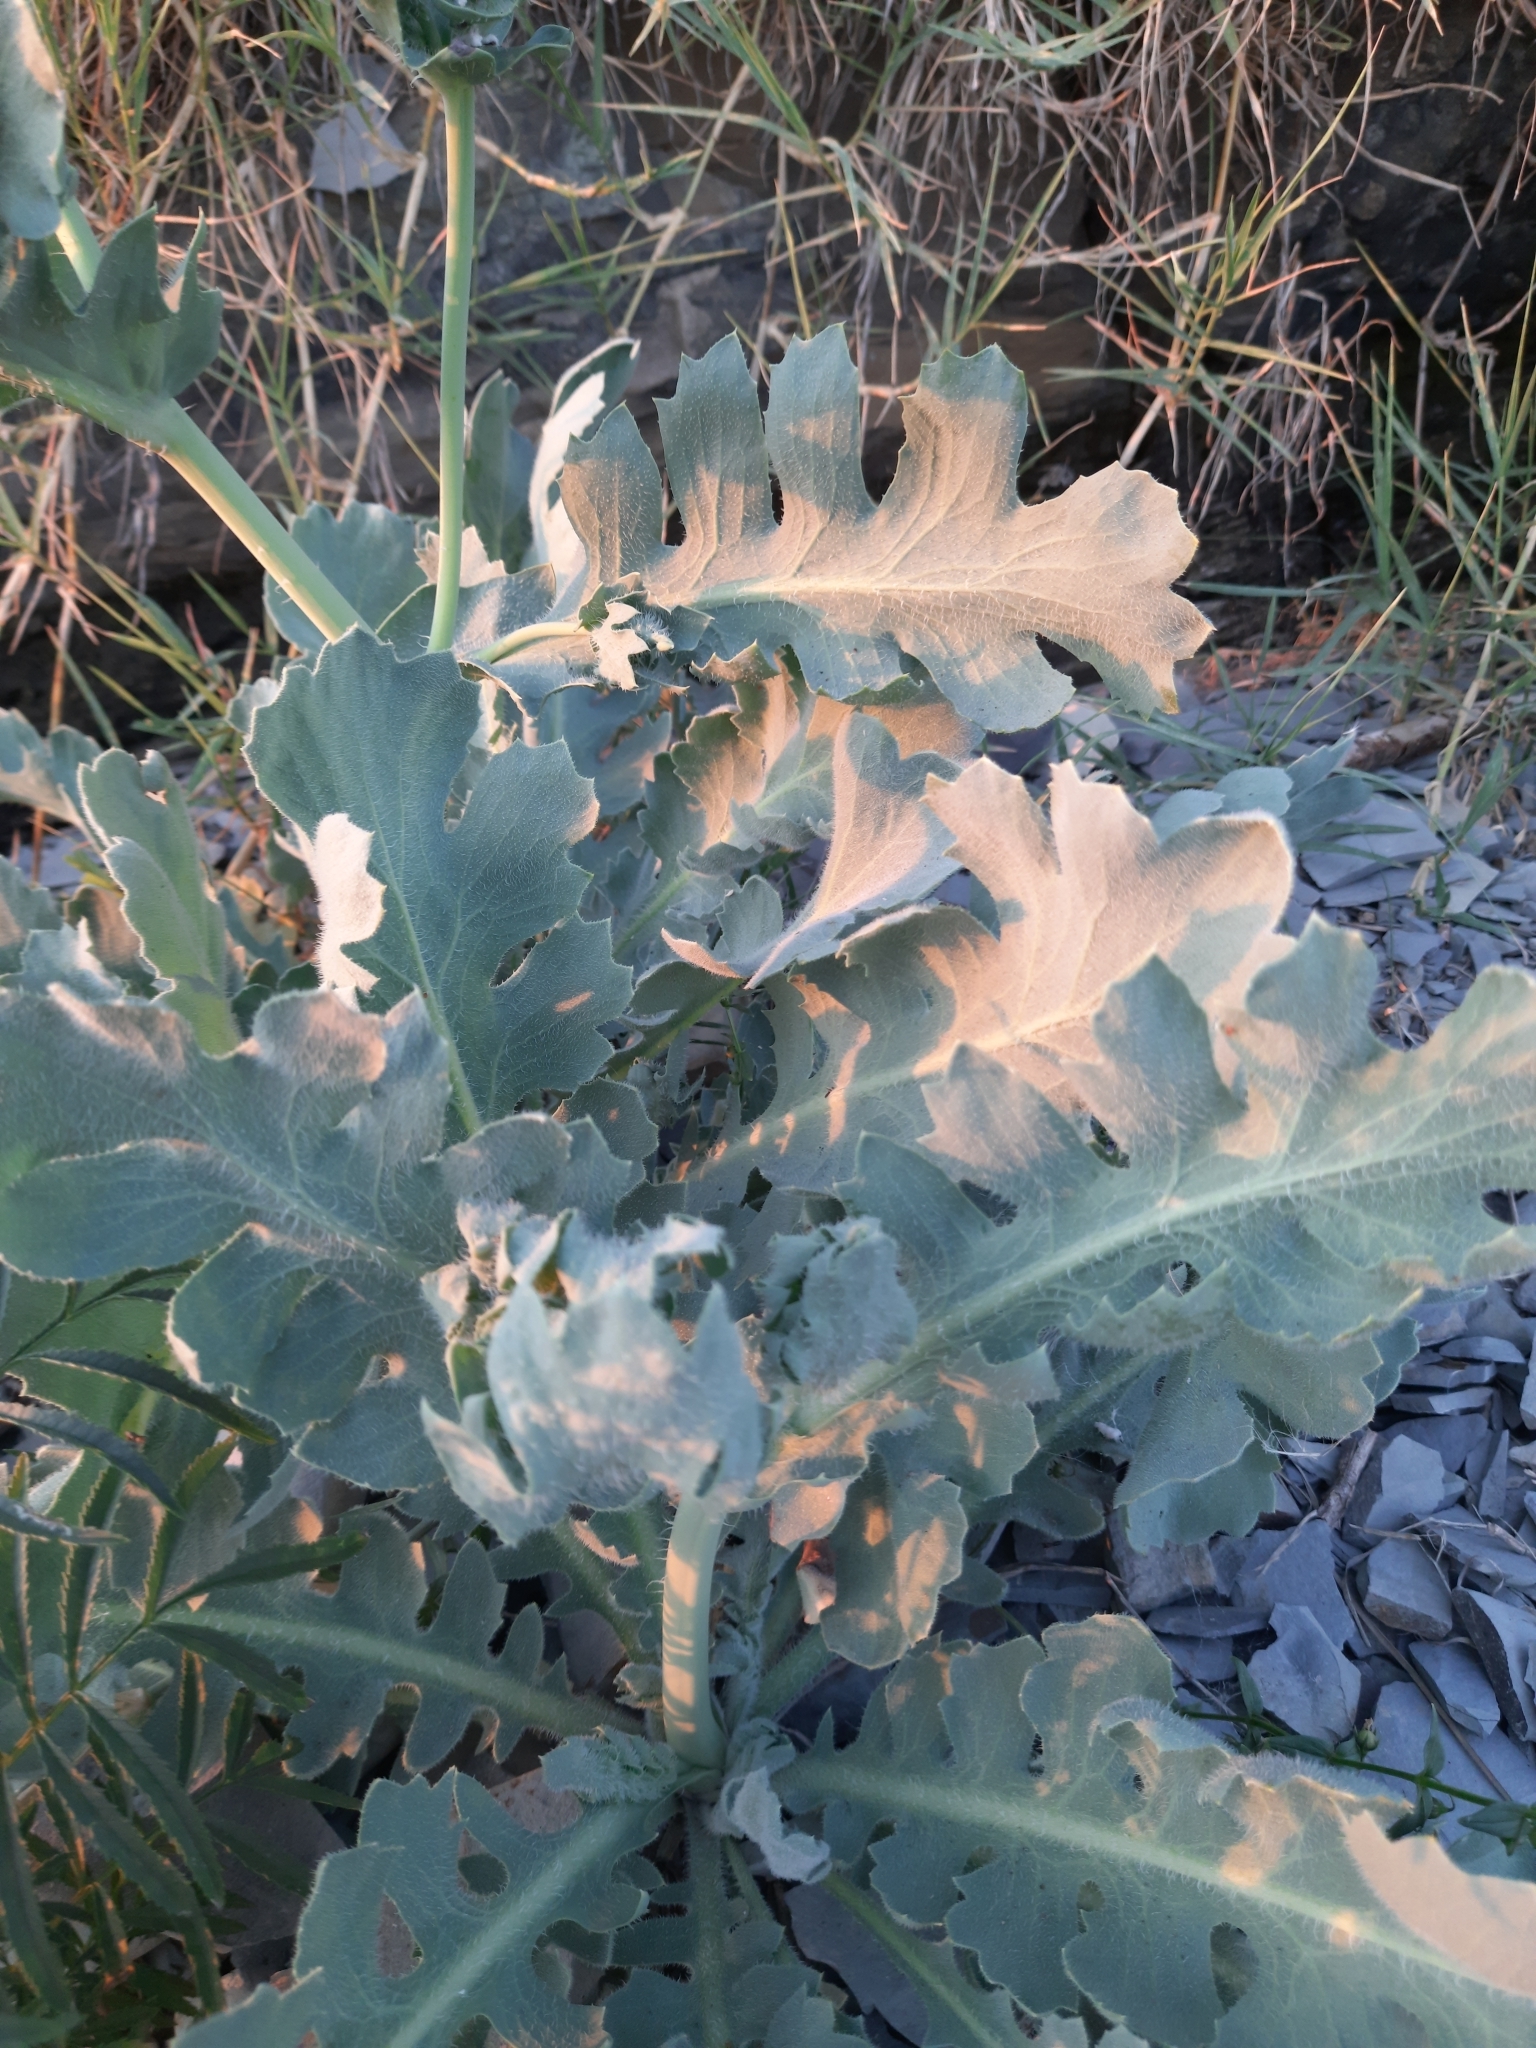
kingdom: Plantae
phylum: Tracheophyta
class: Magnoliopsida
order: Ranunculales
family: Papaveraceae
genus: Glaucium
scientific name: Glaucium flavum
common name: Yellow horned-poppy
